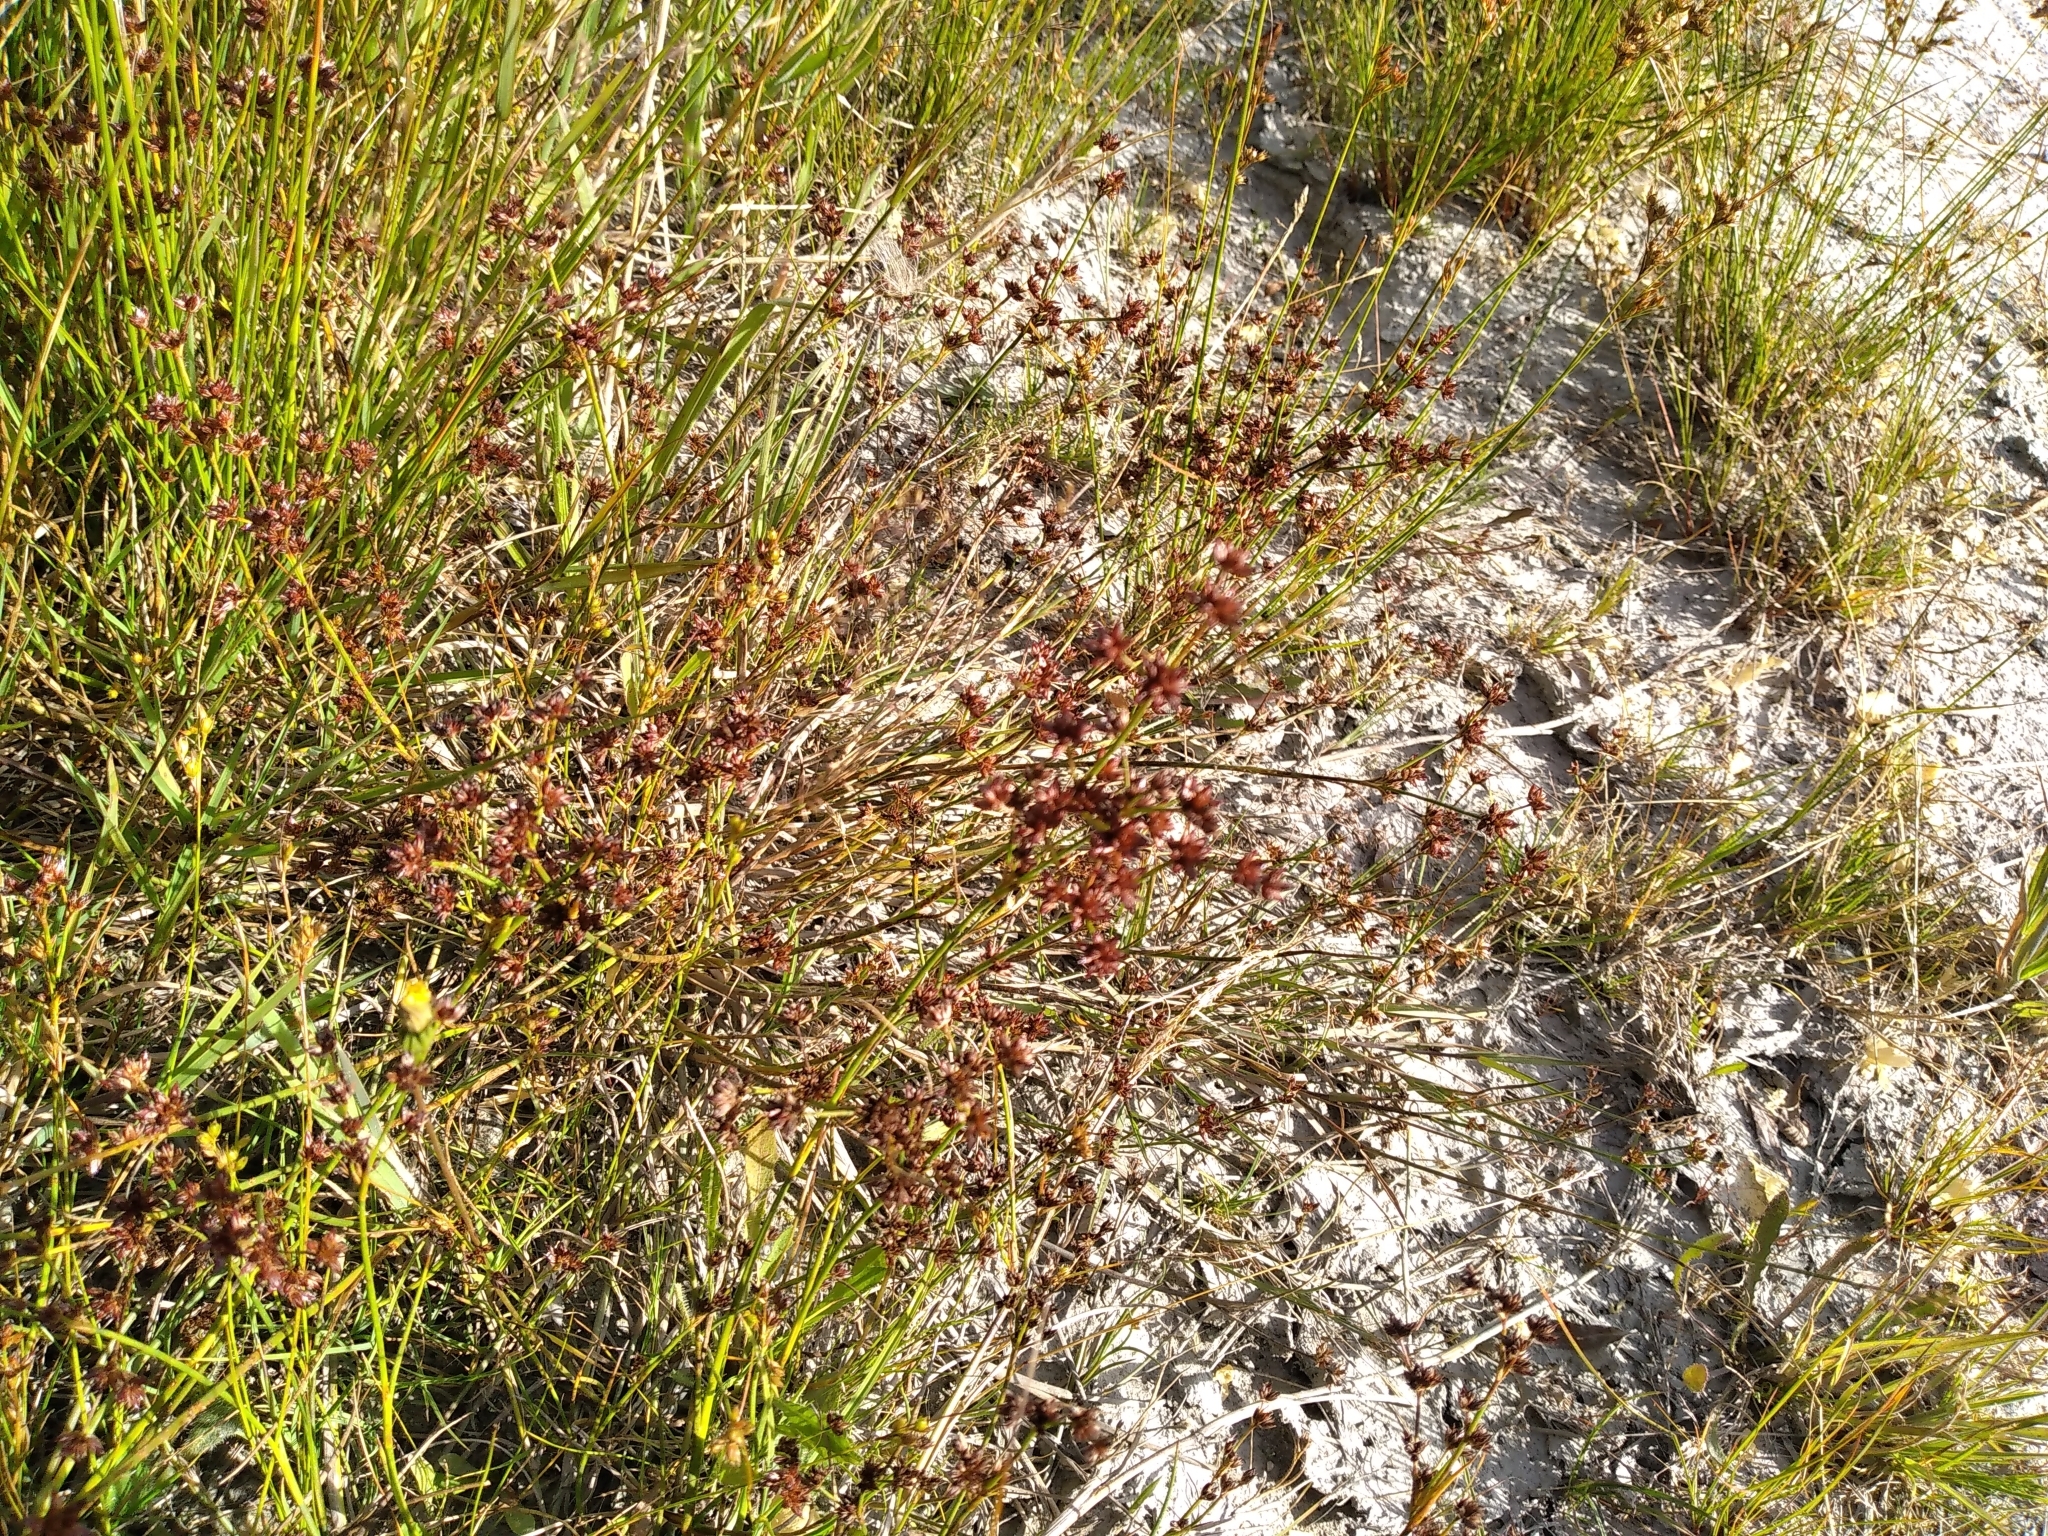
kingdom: Plantae
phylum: Tracheophyta
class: Liliopsida
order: Poales
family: Juncaceae
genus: Juncus
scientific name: Juncus articulatus
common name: Jointed rush
